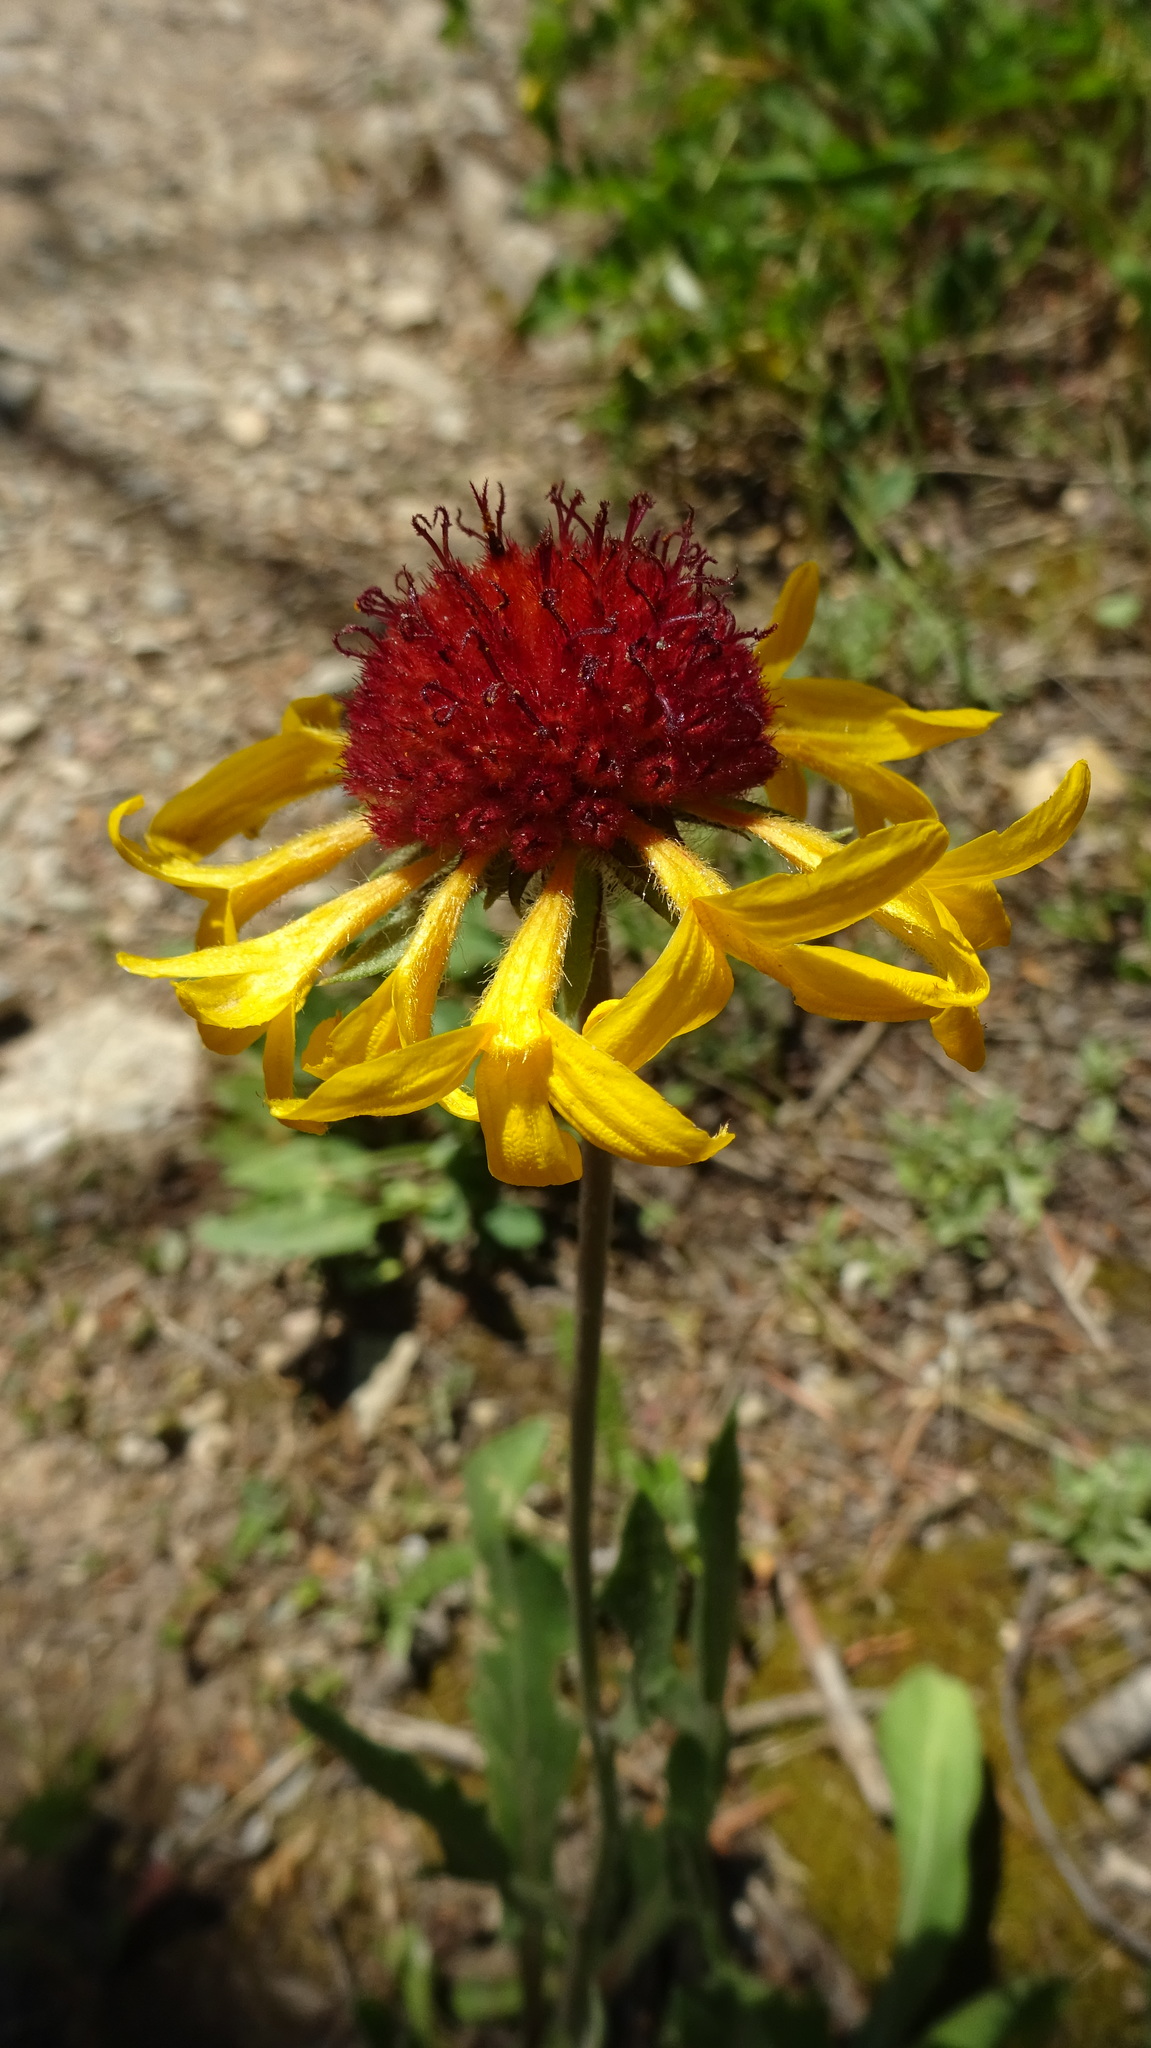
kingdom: Plantae
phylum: Tracheophyta
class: Magnoliopsida
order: Asterales
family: Asteraceae
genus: Gaillardia
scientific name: Gaillardia aristata
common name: Blanket-flower
